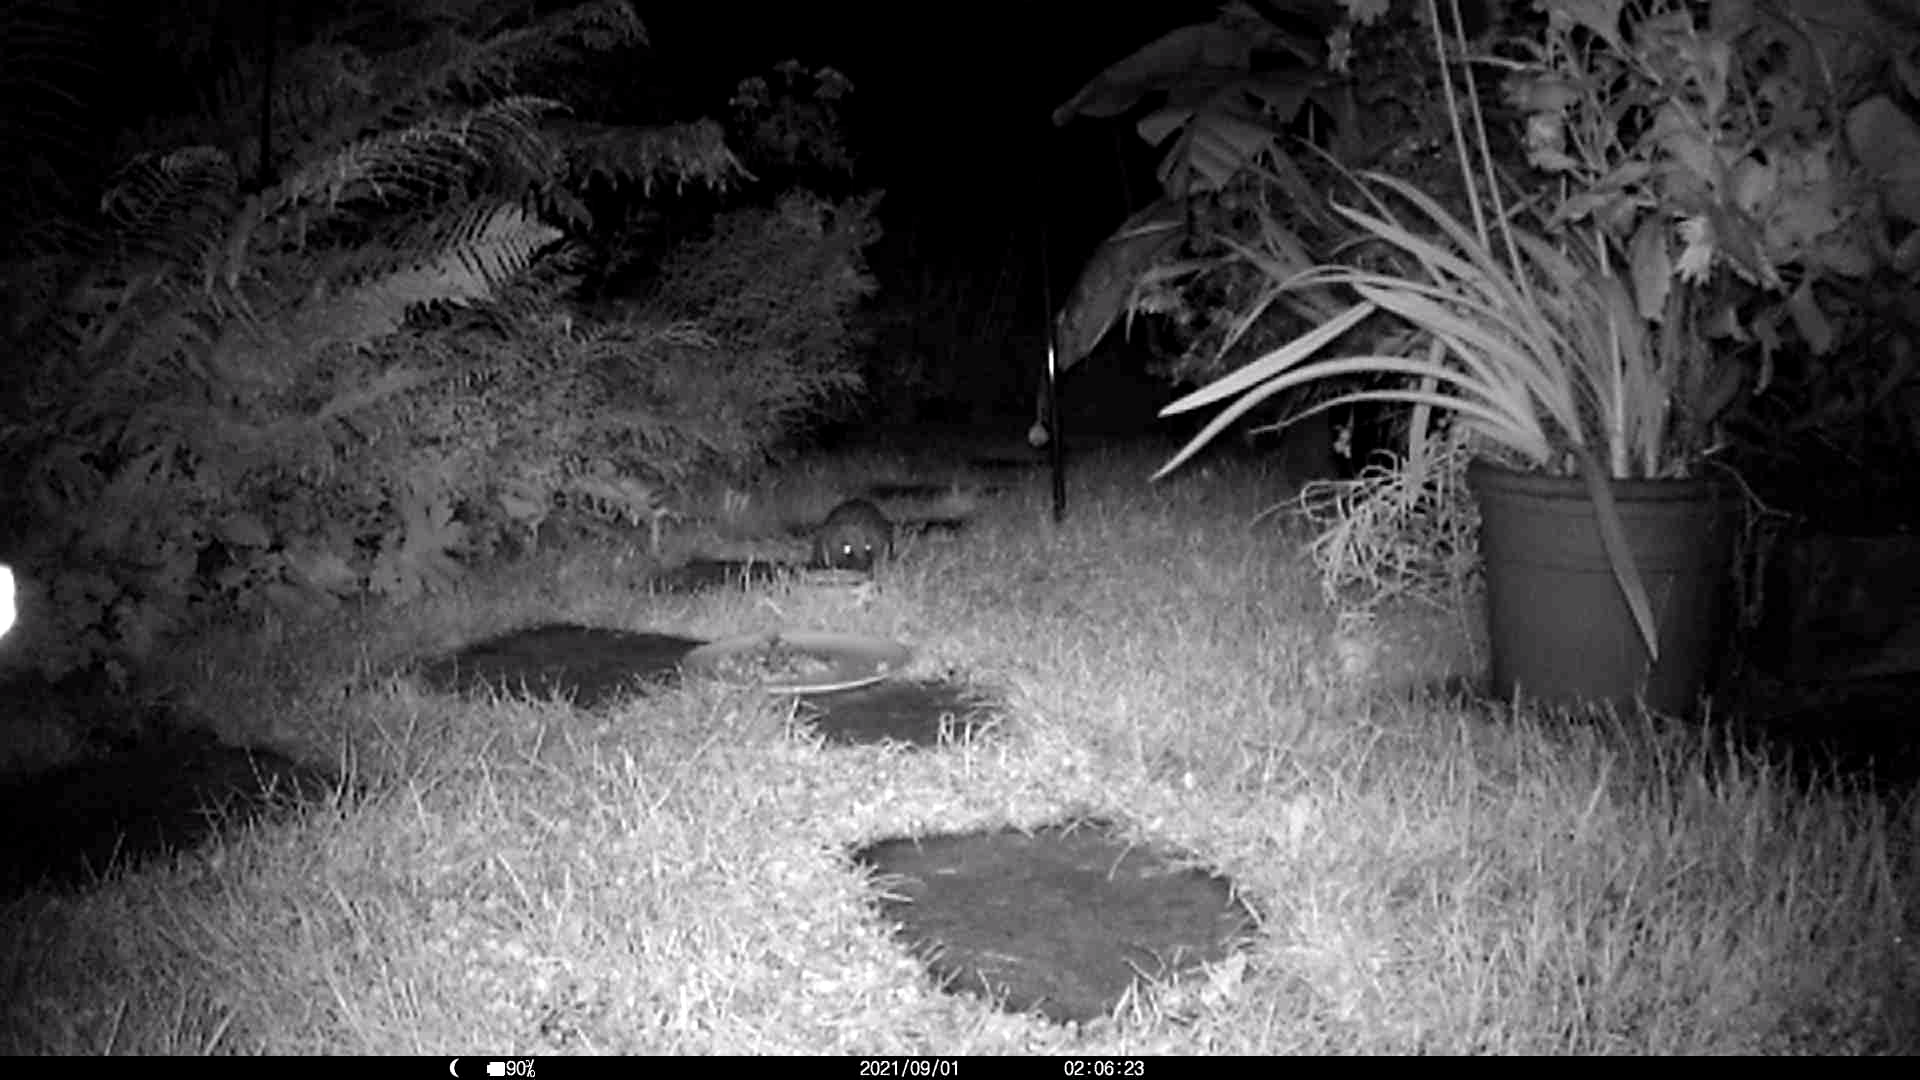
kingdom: Animalia
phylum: Chordata
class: Mammalia
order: Erinaceomorpha
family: Erinaceidae
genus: Erinaceus
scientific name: Erinaceus europaeus
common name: West european hedgehog
